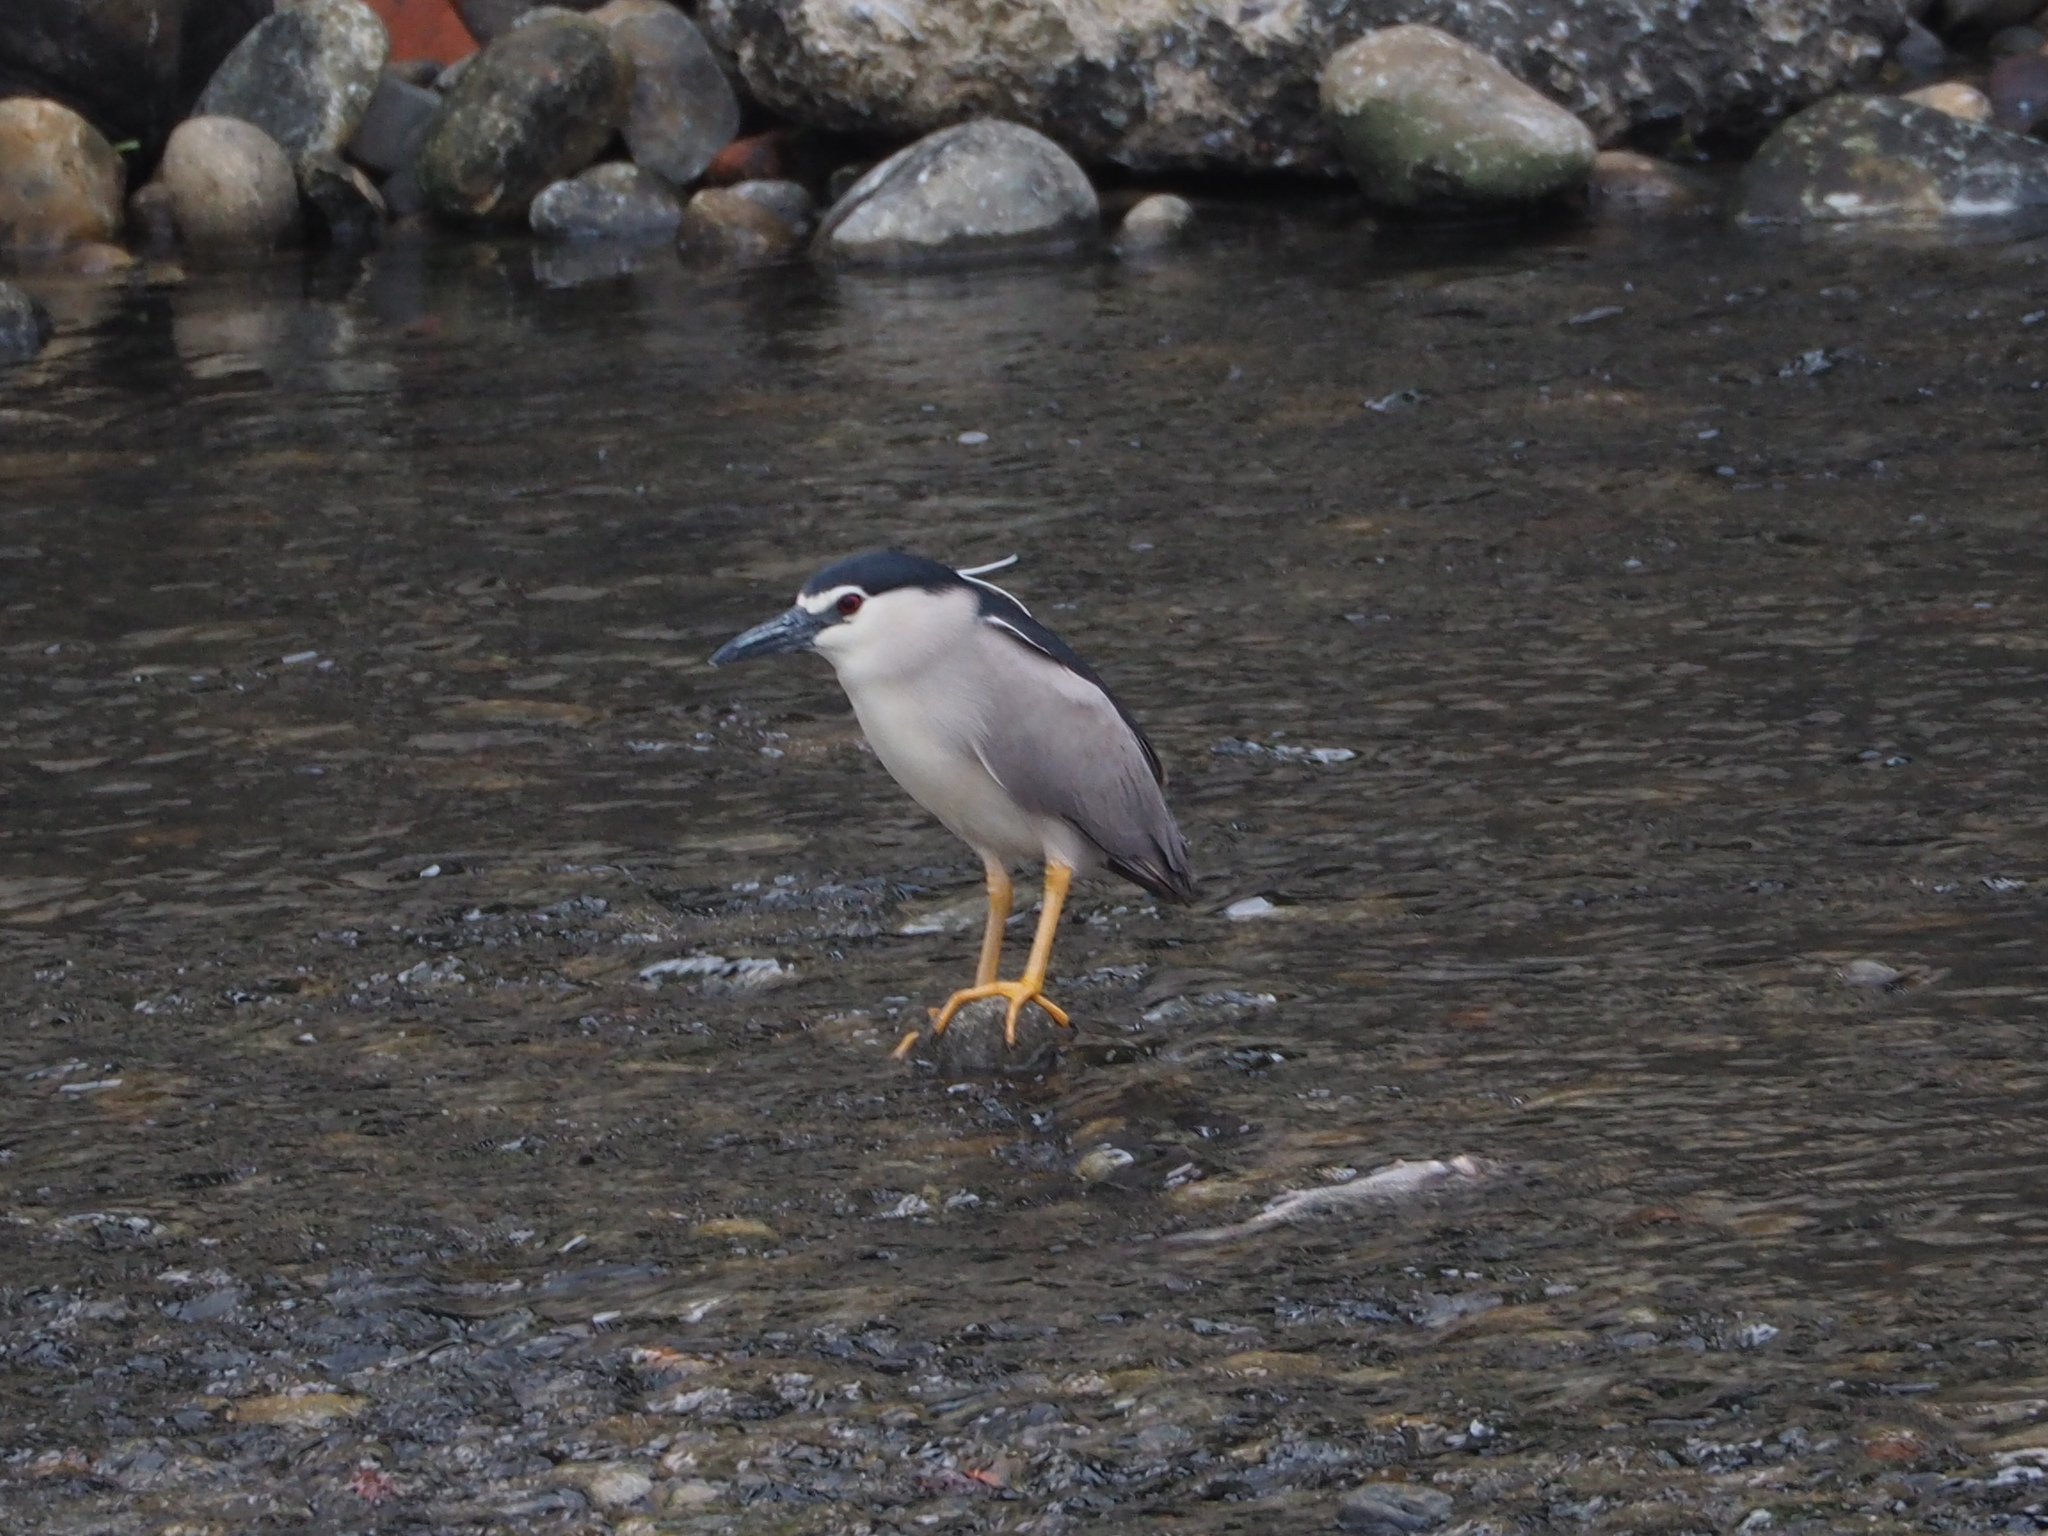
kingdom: Animalia
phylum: Chordata
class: Aves
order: Pelecaniformes
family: Ardeidae
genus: Nycticorax
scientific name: Nycticorax nycticorax
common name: Black-crowned night heron
